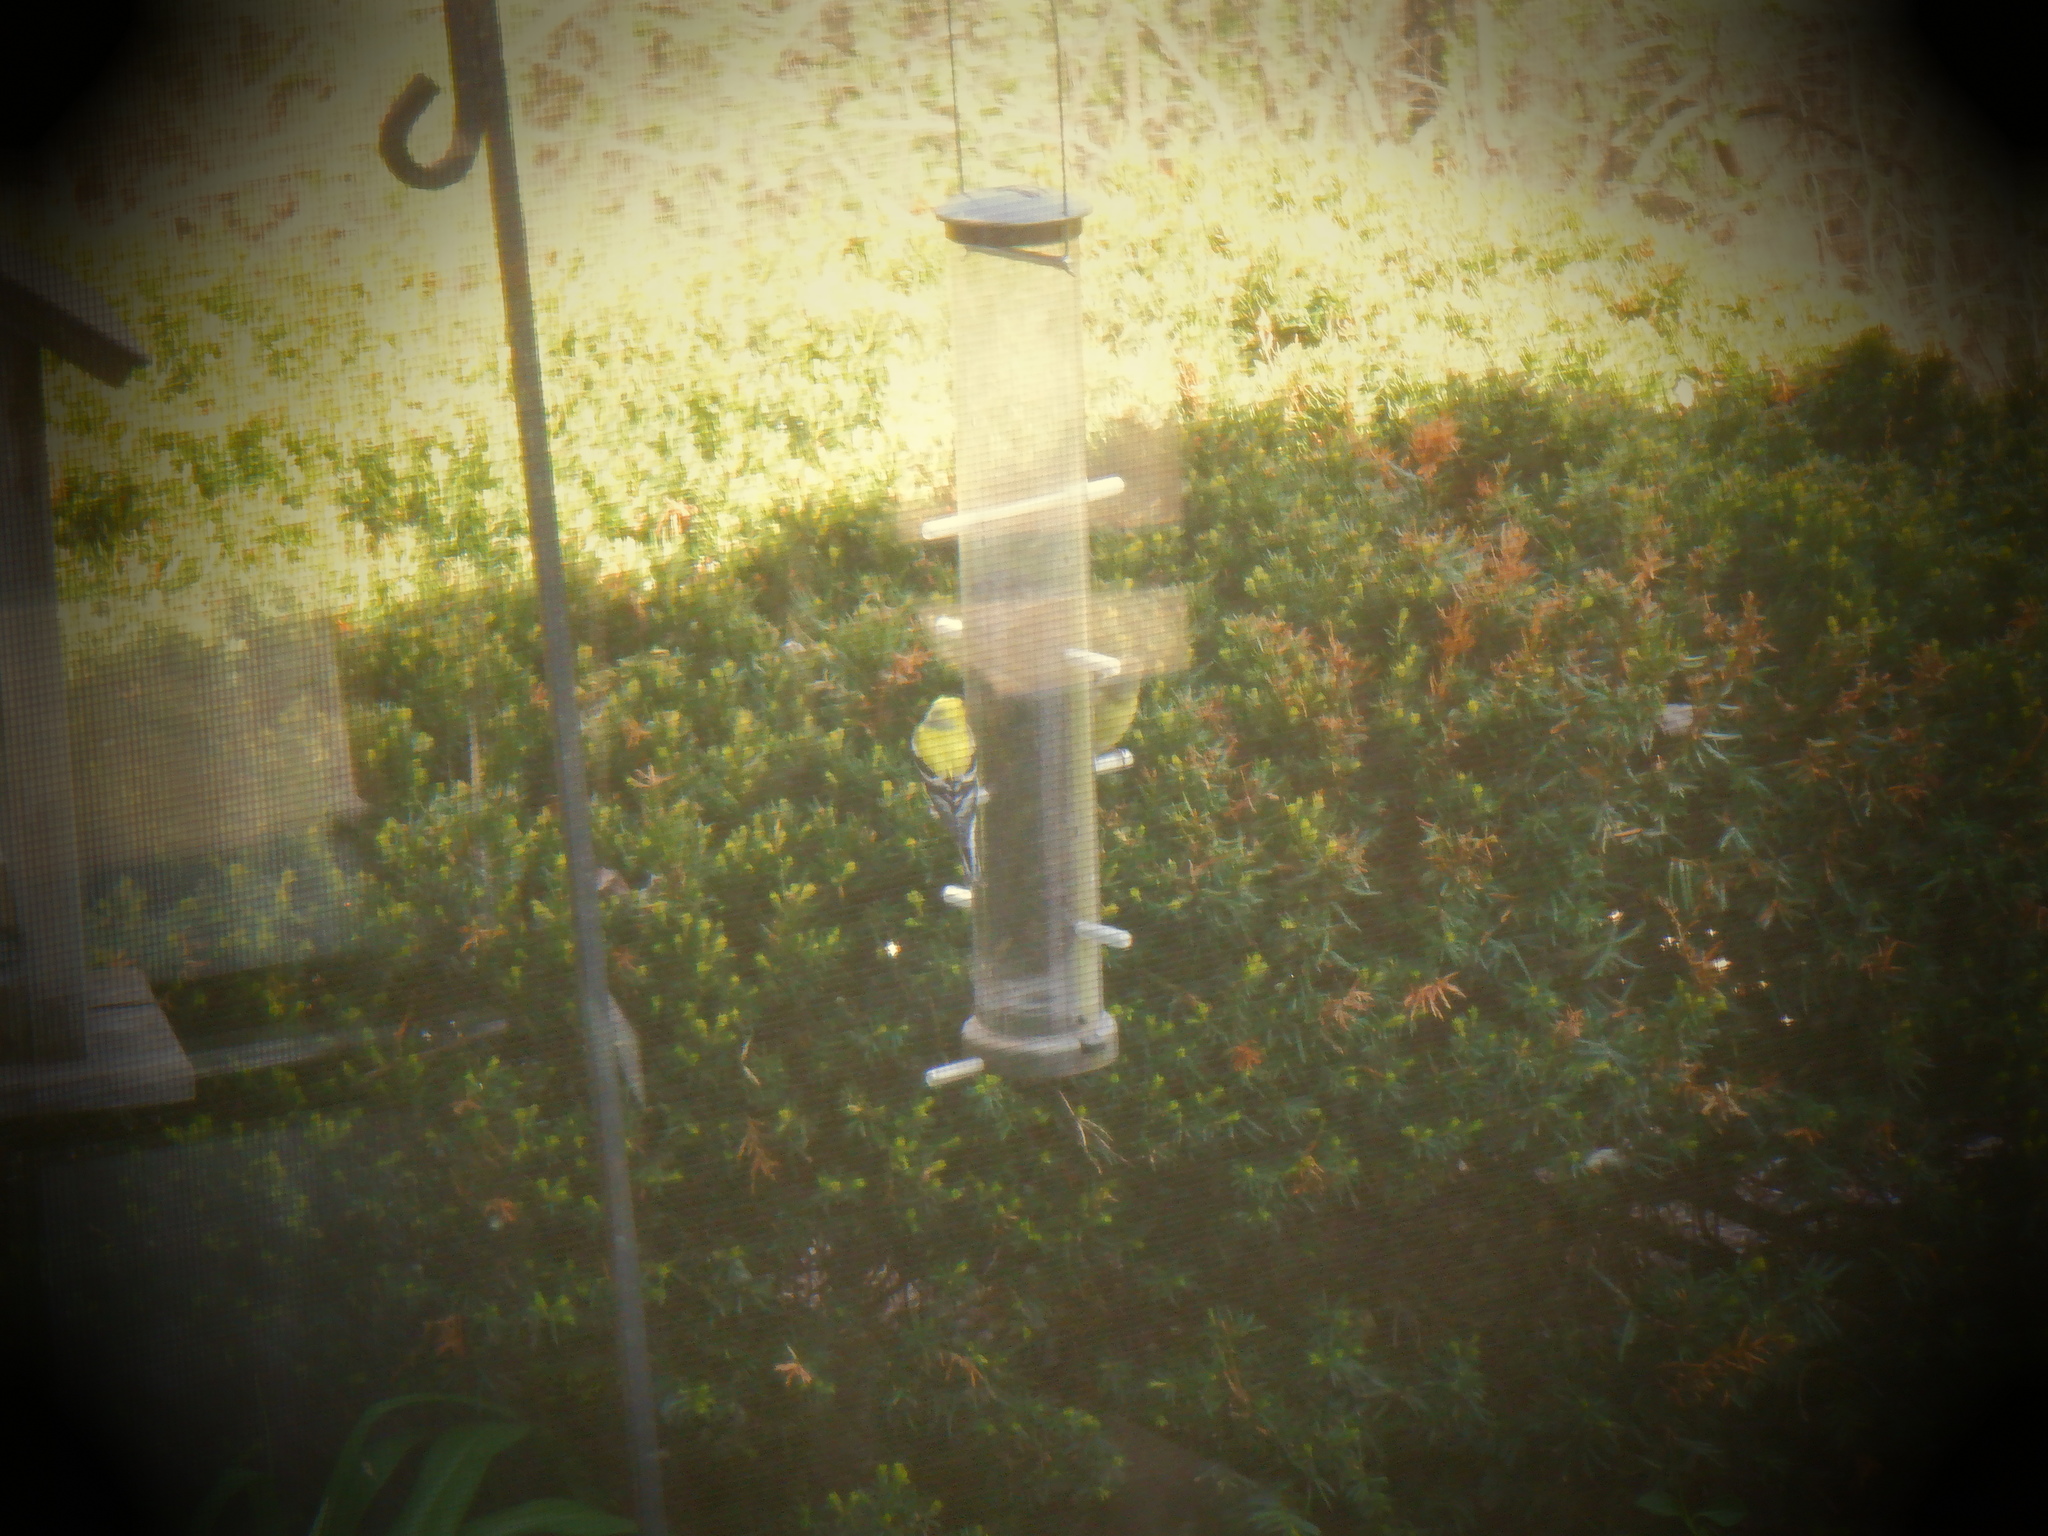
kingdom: Animalia
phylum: Chordata
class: Aves
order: Passeriformes
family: Fringillidae
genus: Spinus
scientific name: Spinus tristis
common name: American goldfinch
